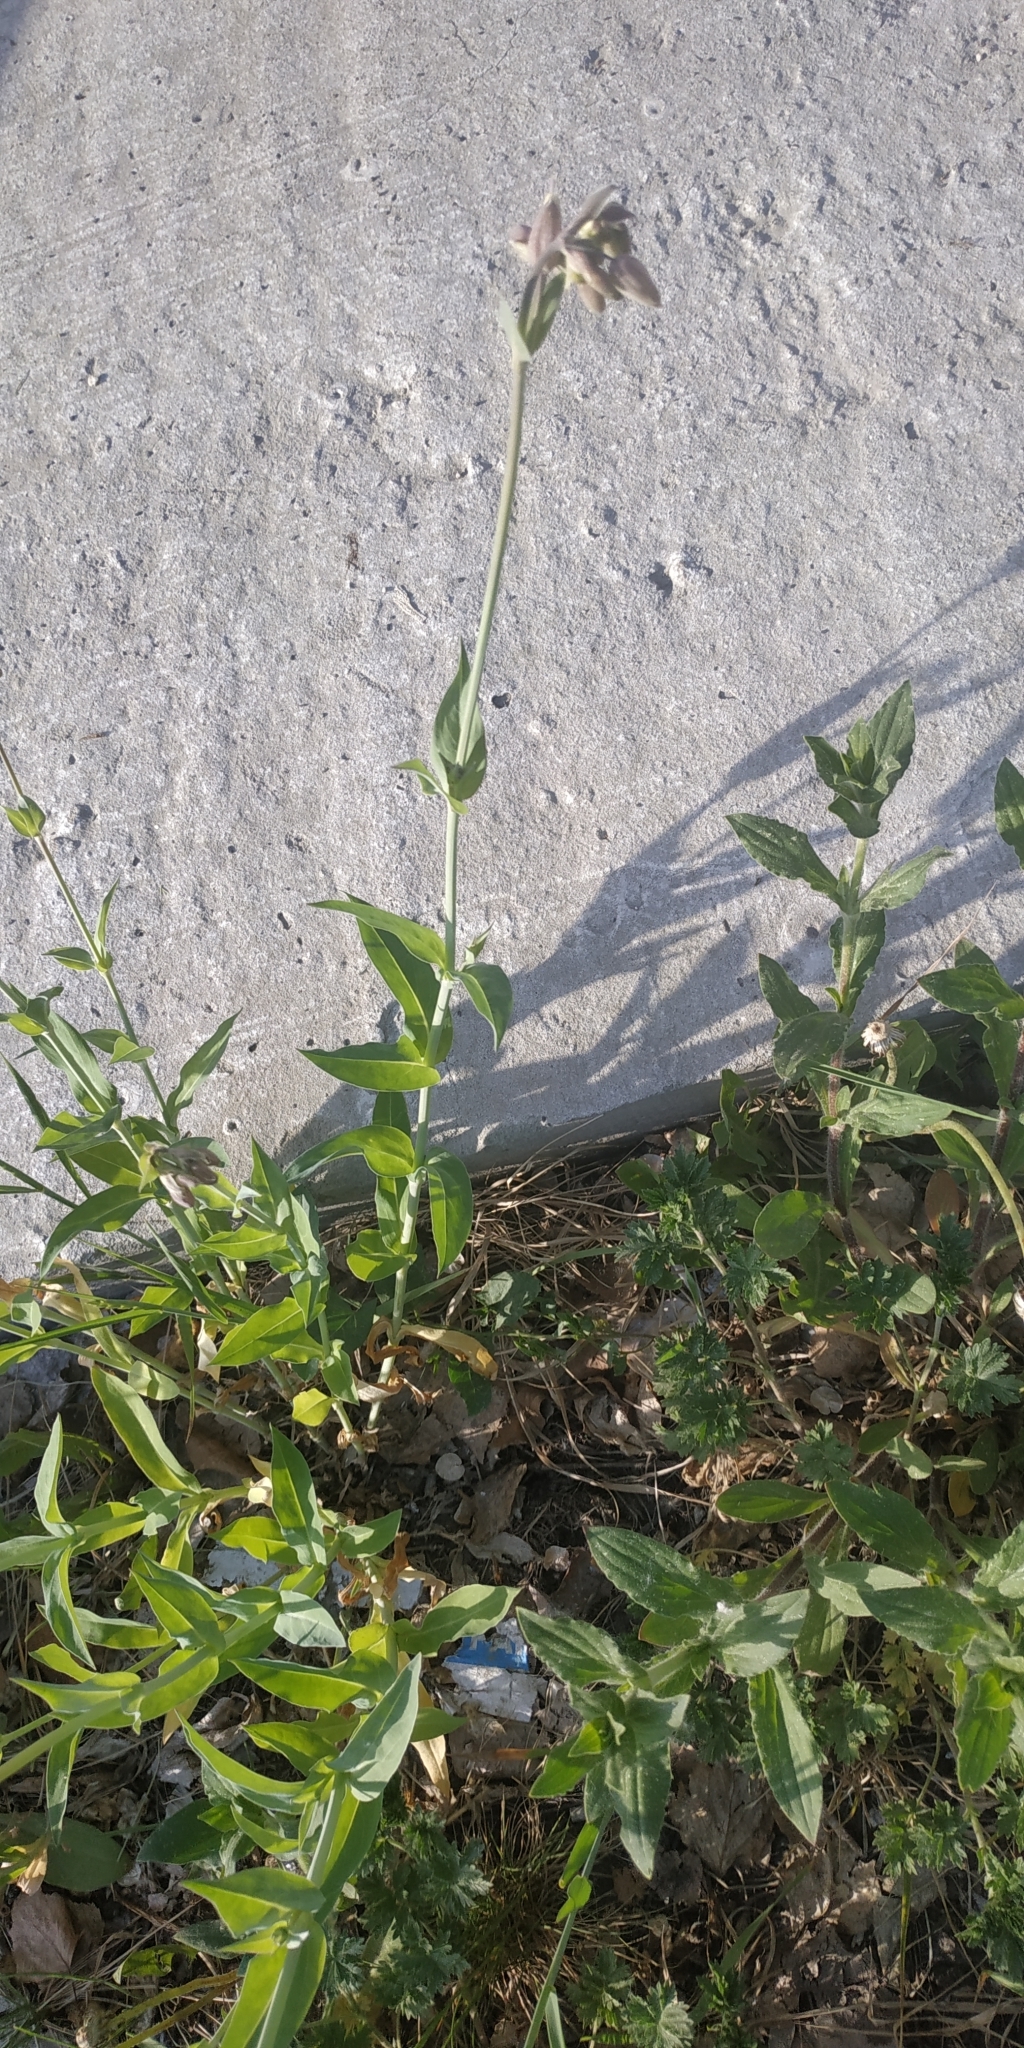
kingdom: Plantae
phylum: Tracheophyta
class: Magnoliopsida
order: Caryophyllales
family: Caryophyllaceae
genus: Silene
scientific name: Silene vulgaris
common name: Bladder campion
